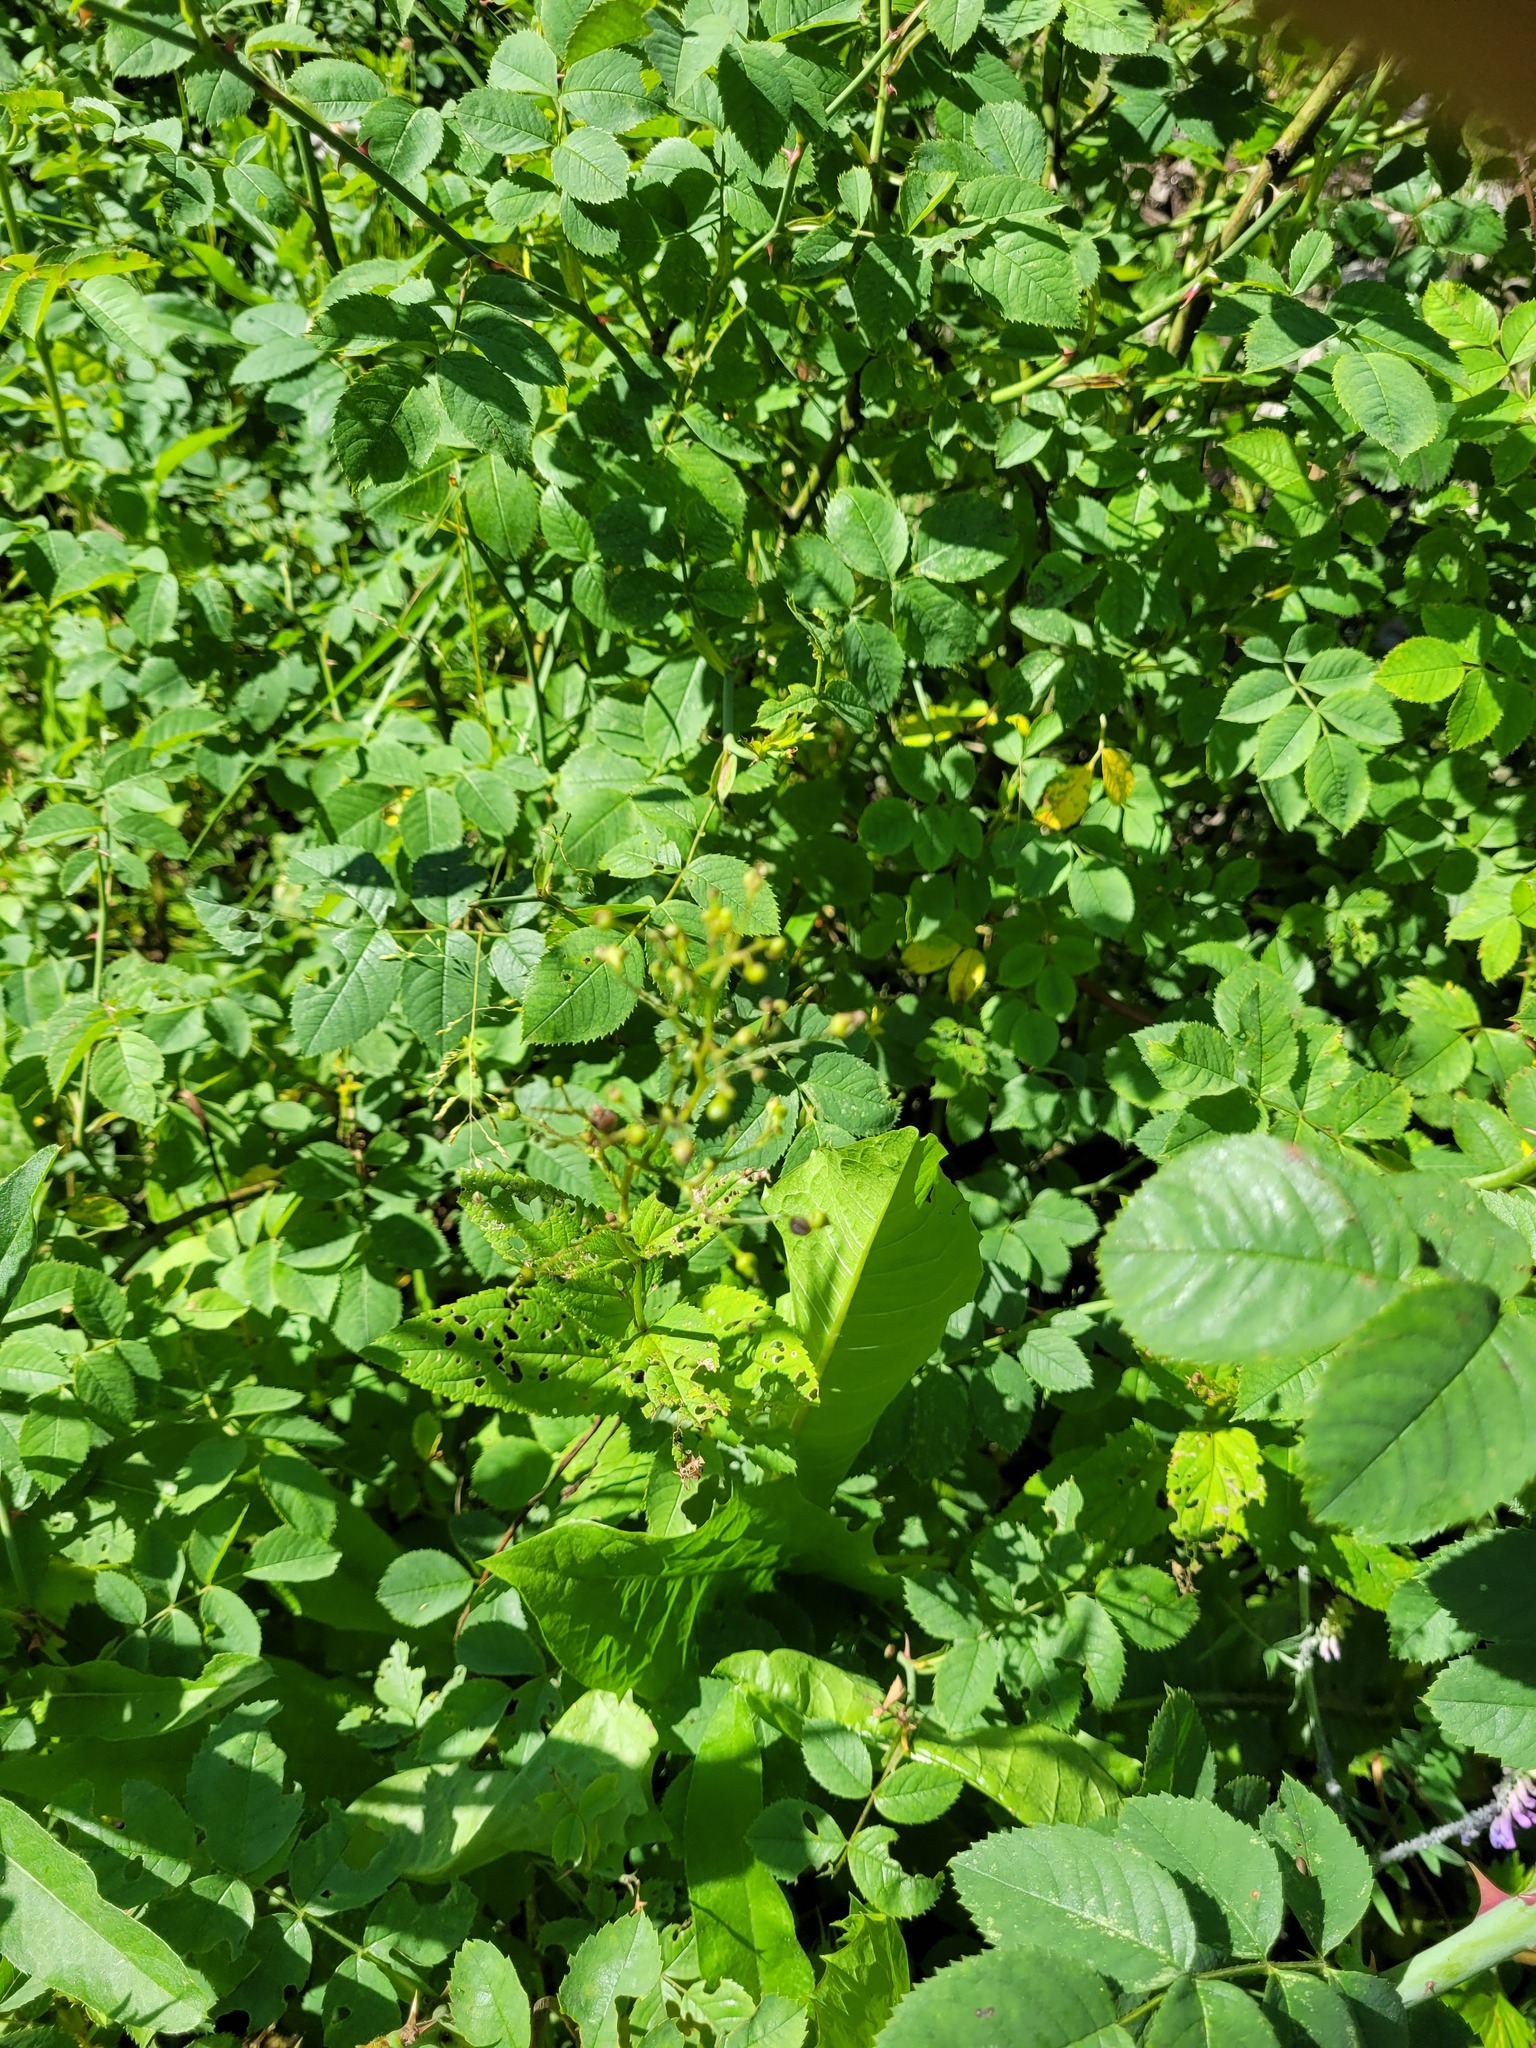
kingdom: Plantae
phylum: Tracheophyta
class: Magnoliopsida
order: Lamiales
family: Scrophulariaceae
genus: Scrophularia
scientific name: Scrophularia nodosa
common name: Common figwort
